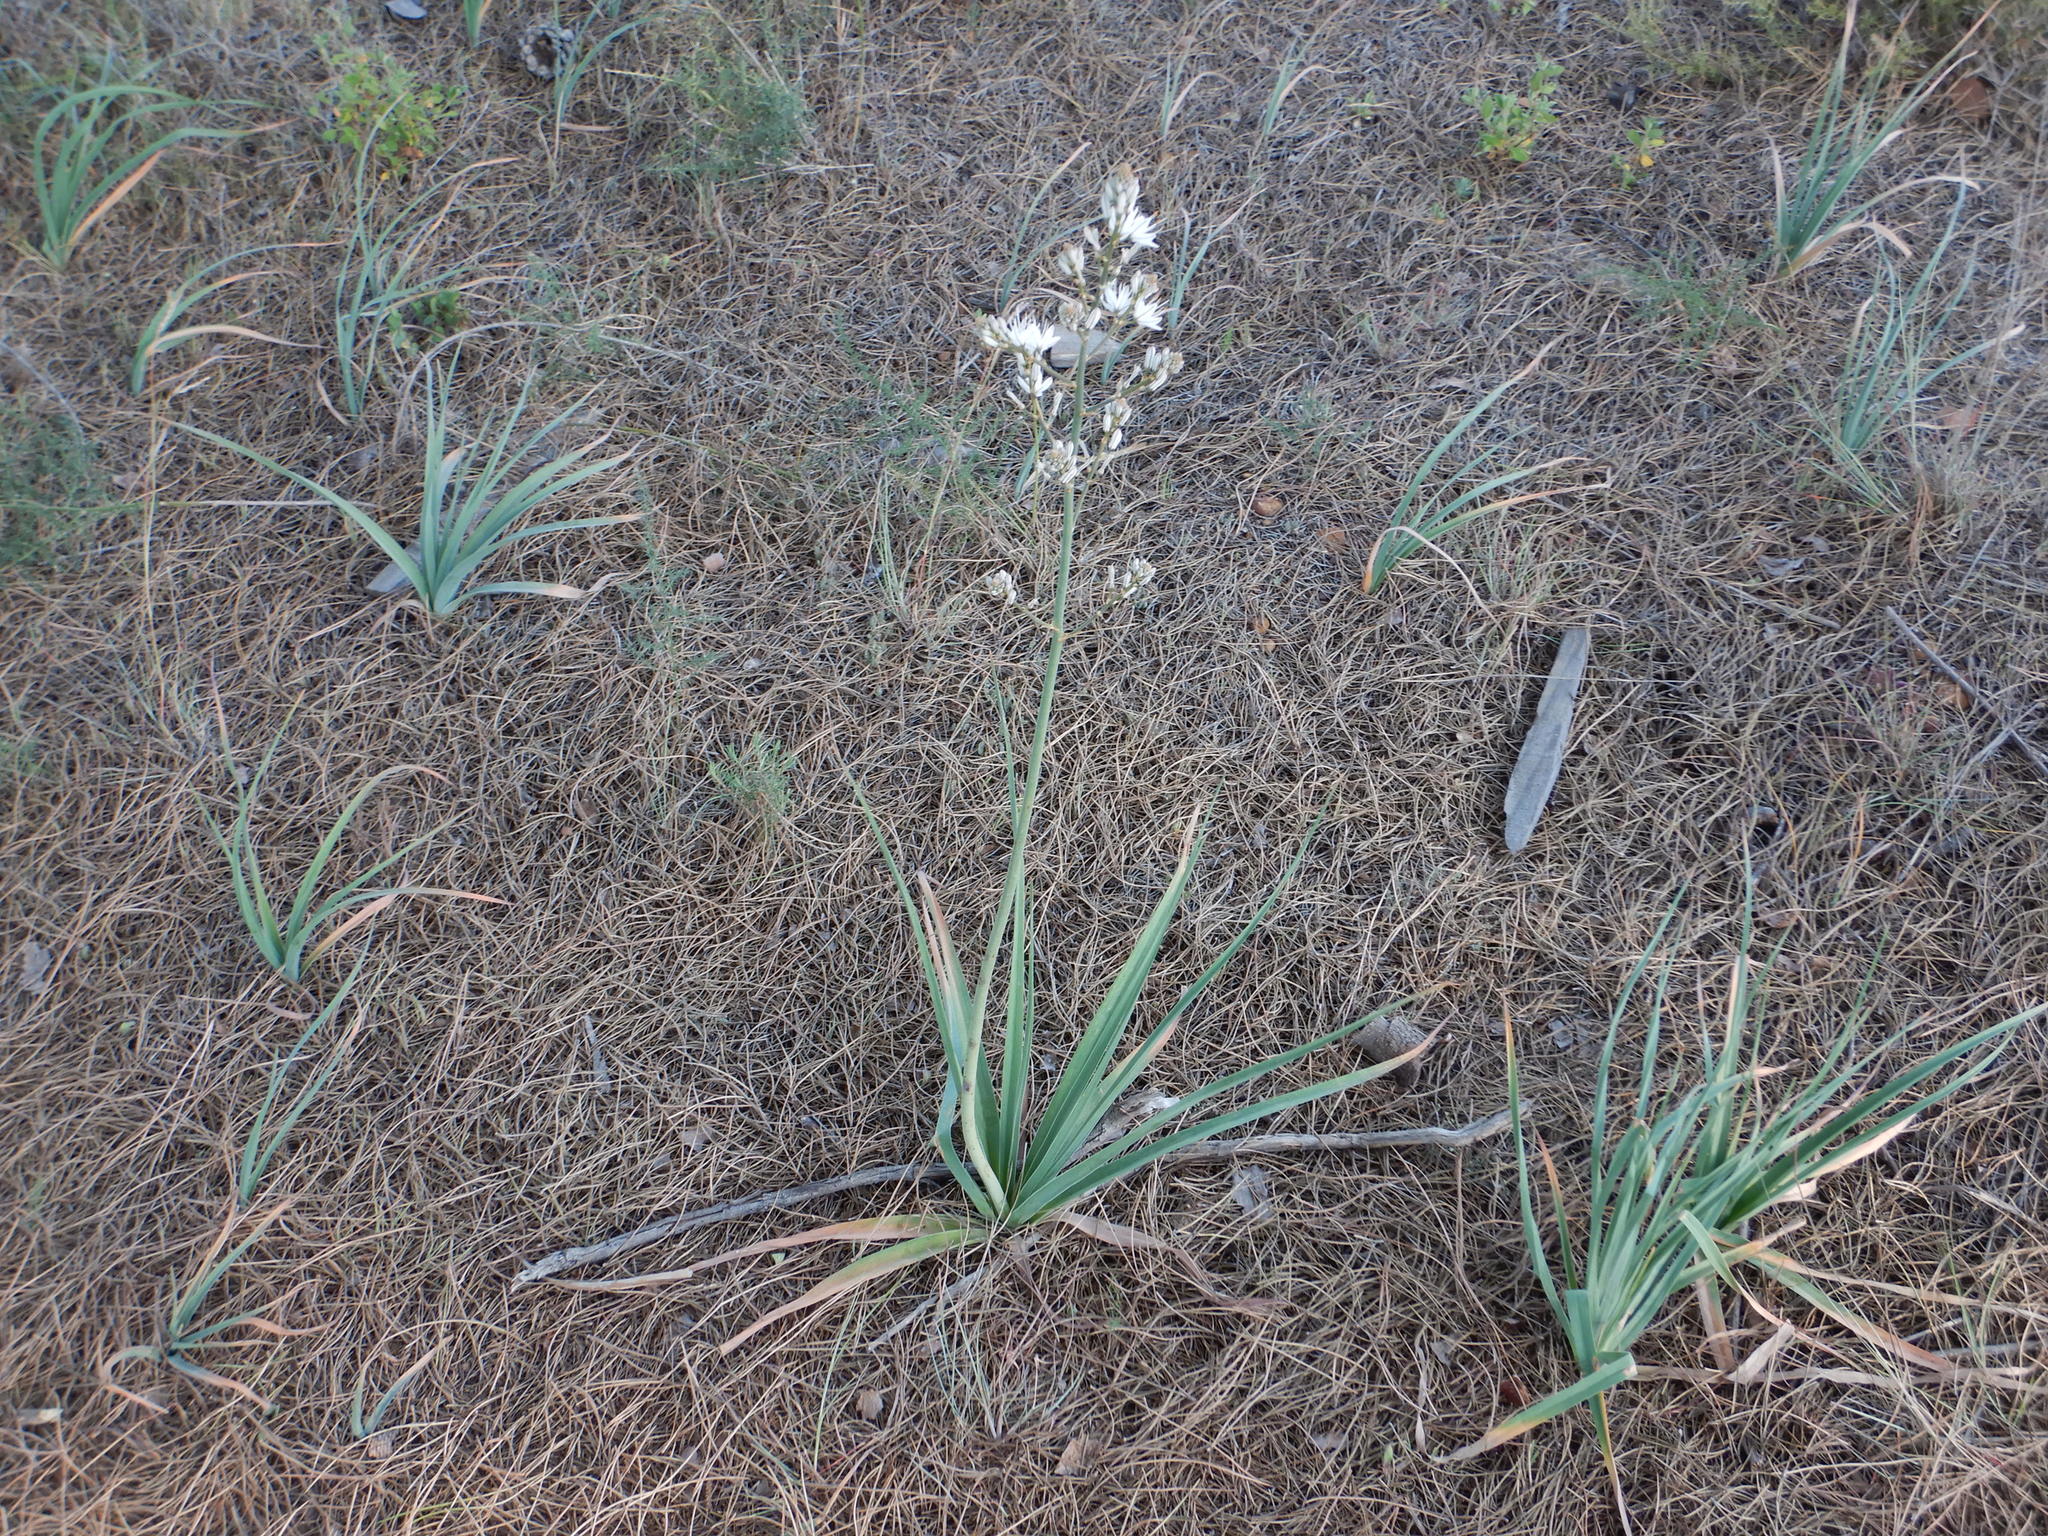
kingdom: Plantae
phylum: Tracheophyta
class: Liliopsida
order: Asparagales
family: Asphodelaceae
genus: Asphodelus
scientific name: Asphodelus ramosus
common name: Silverrod
